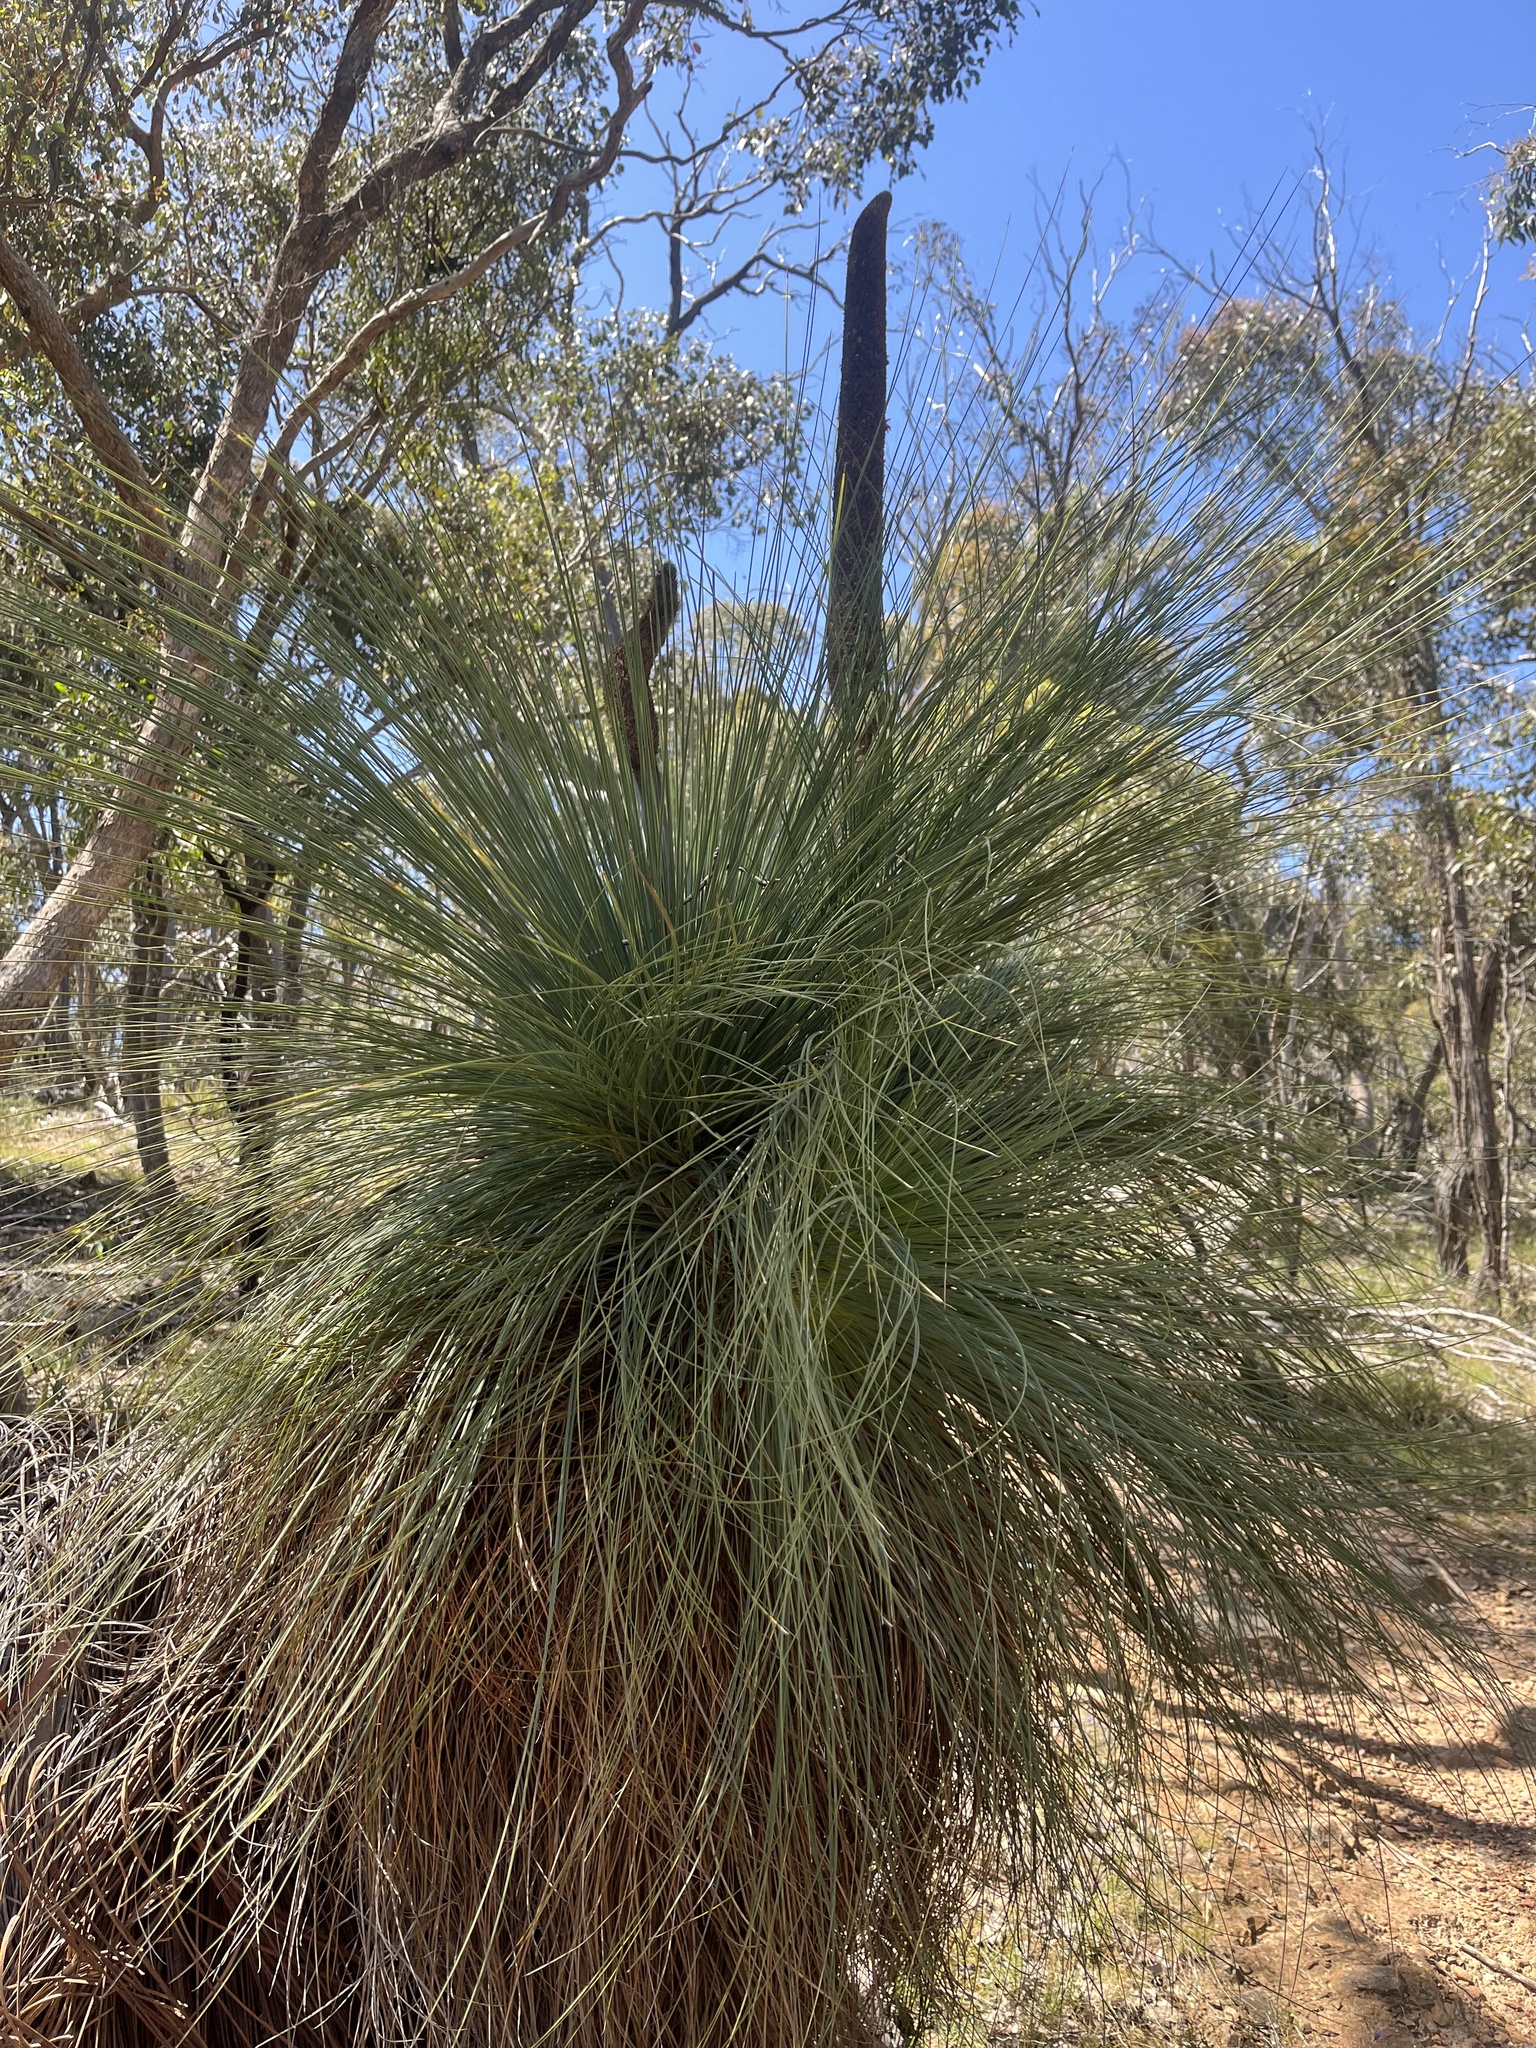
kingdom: Plantae
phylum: Tracheophyta
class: Liliopsida
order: Asparagales
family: Asphodelaceae
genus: Xanthorrhoea
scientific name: Xanthorrhoea australis
